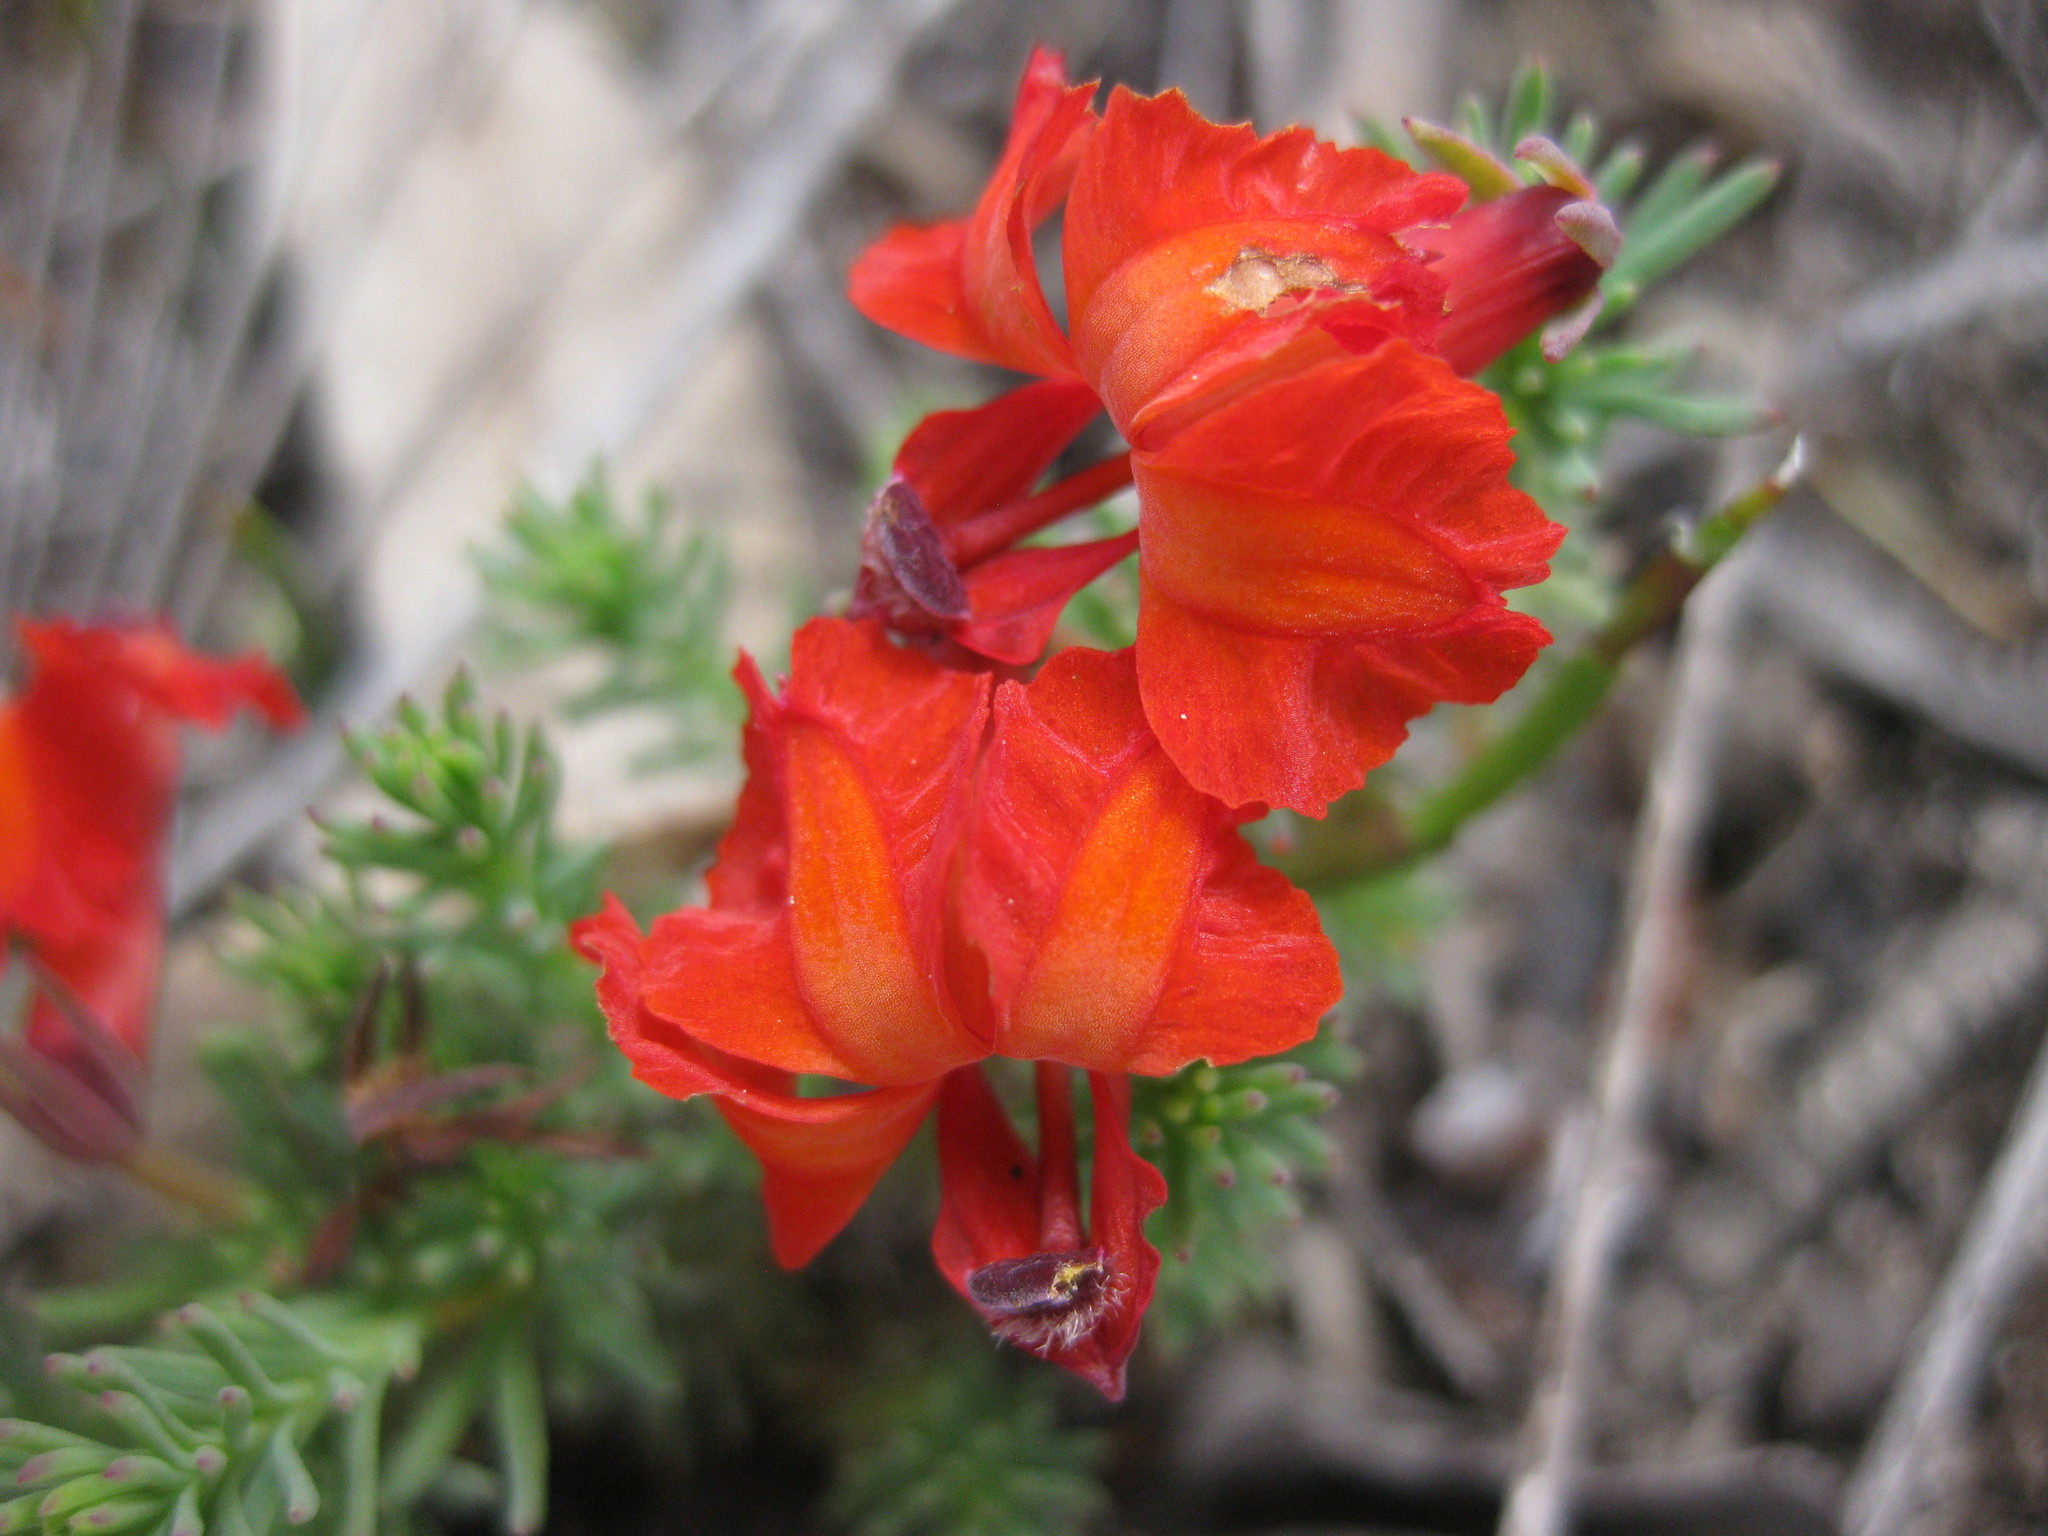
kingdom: Plantae
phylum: Tracheophyta
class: Magnoliopsida
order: Asterales
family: Goodeniaceae
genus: Lechenaultia
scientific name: Lechenaultia formosa
